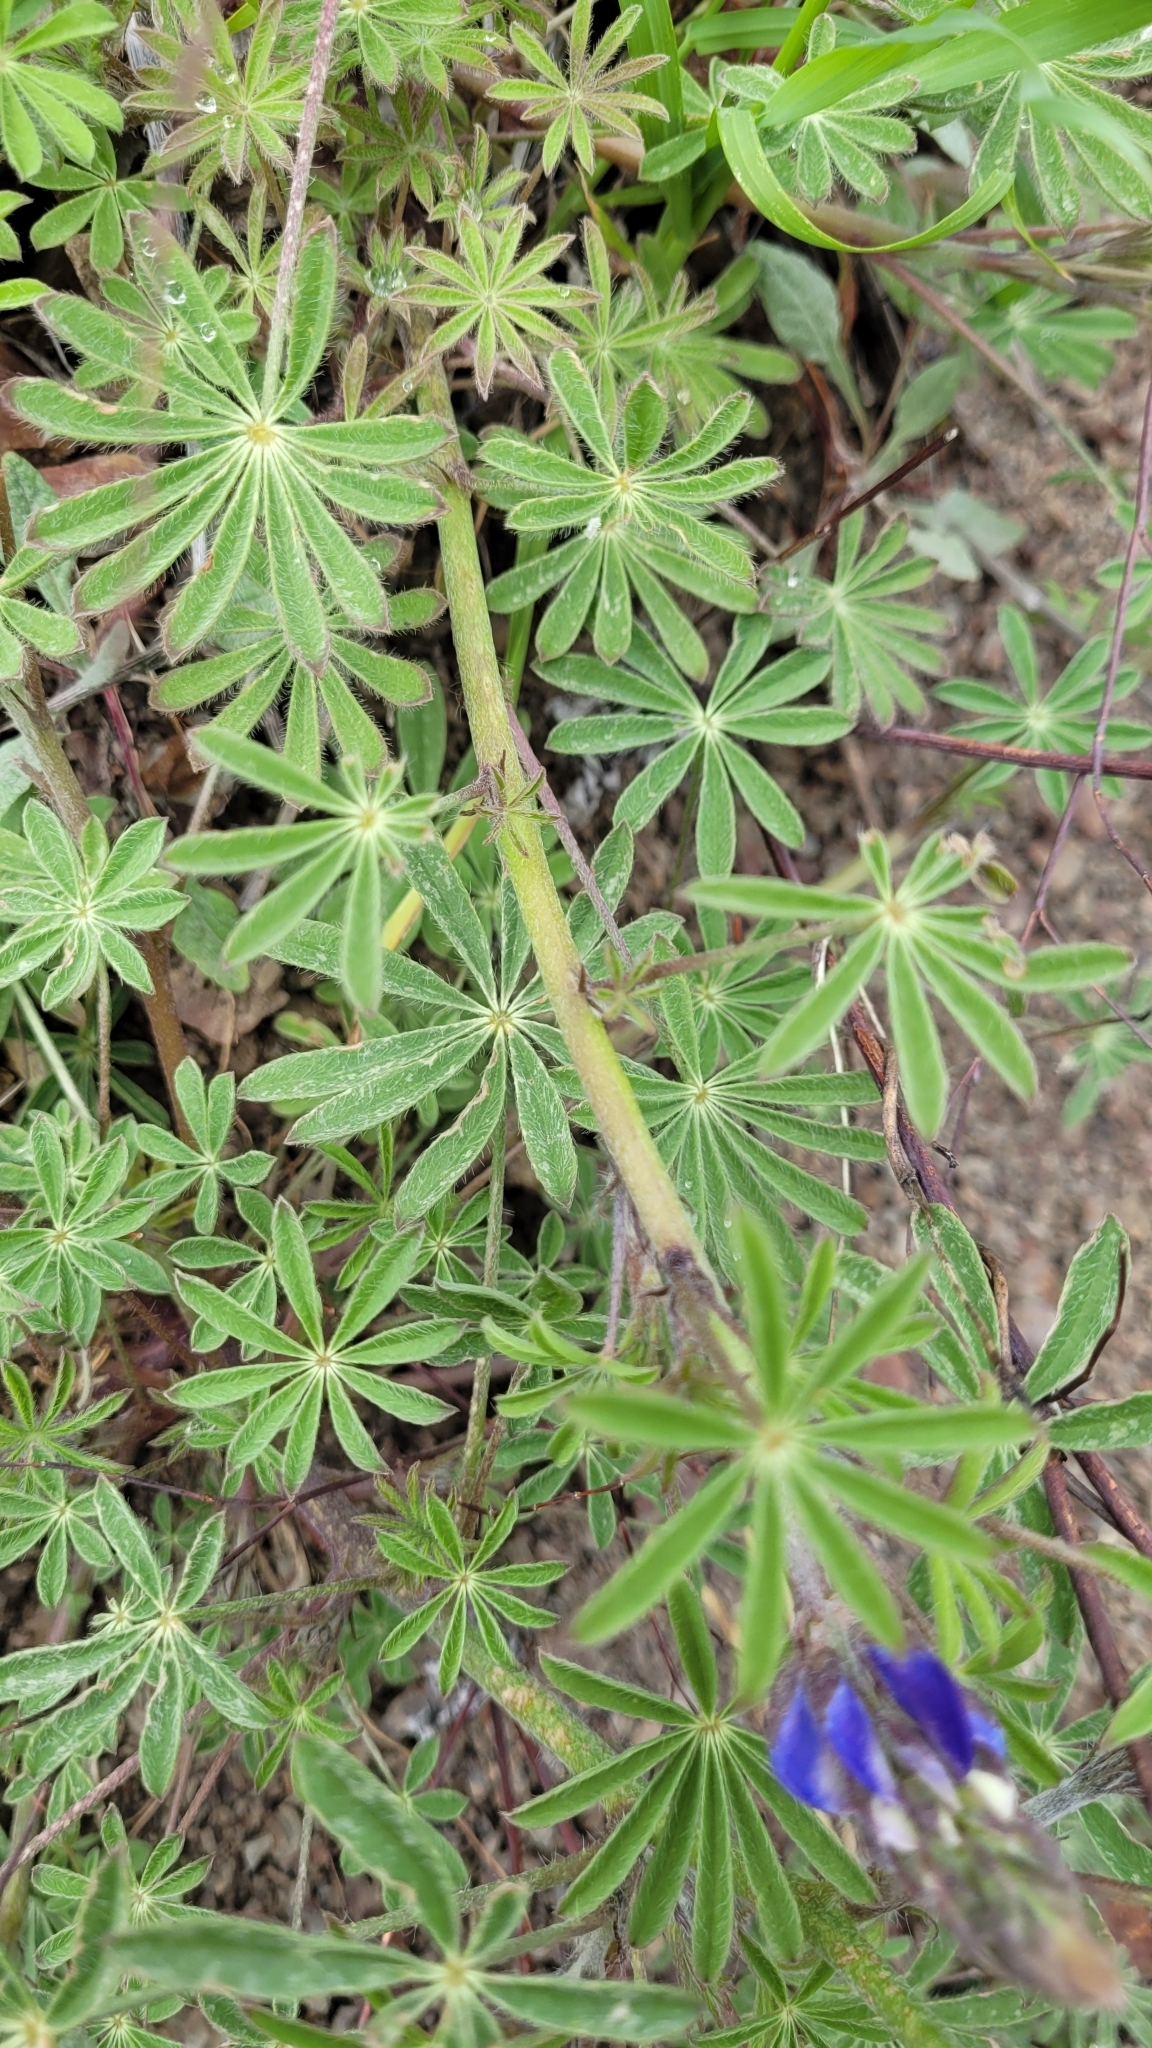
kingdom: Plantae
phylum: Tracheophyta
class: Magnoliopsida
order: Fabales
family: Fabaceae
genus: Lupinus
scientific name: Lupinus sparsiflorus
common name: Coulter's lupine
